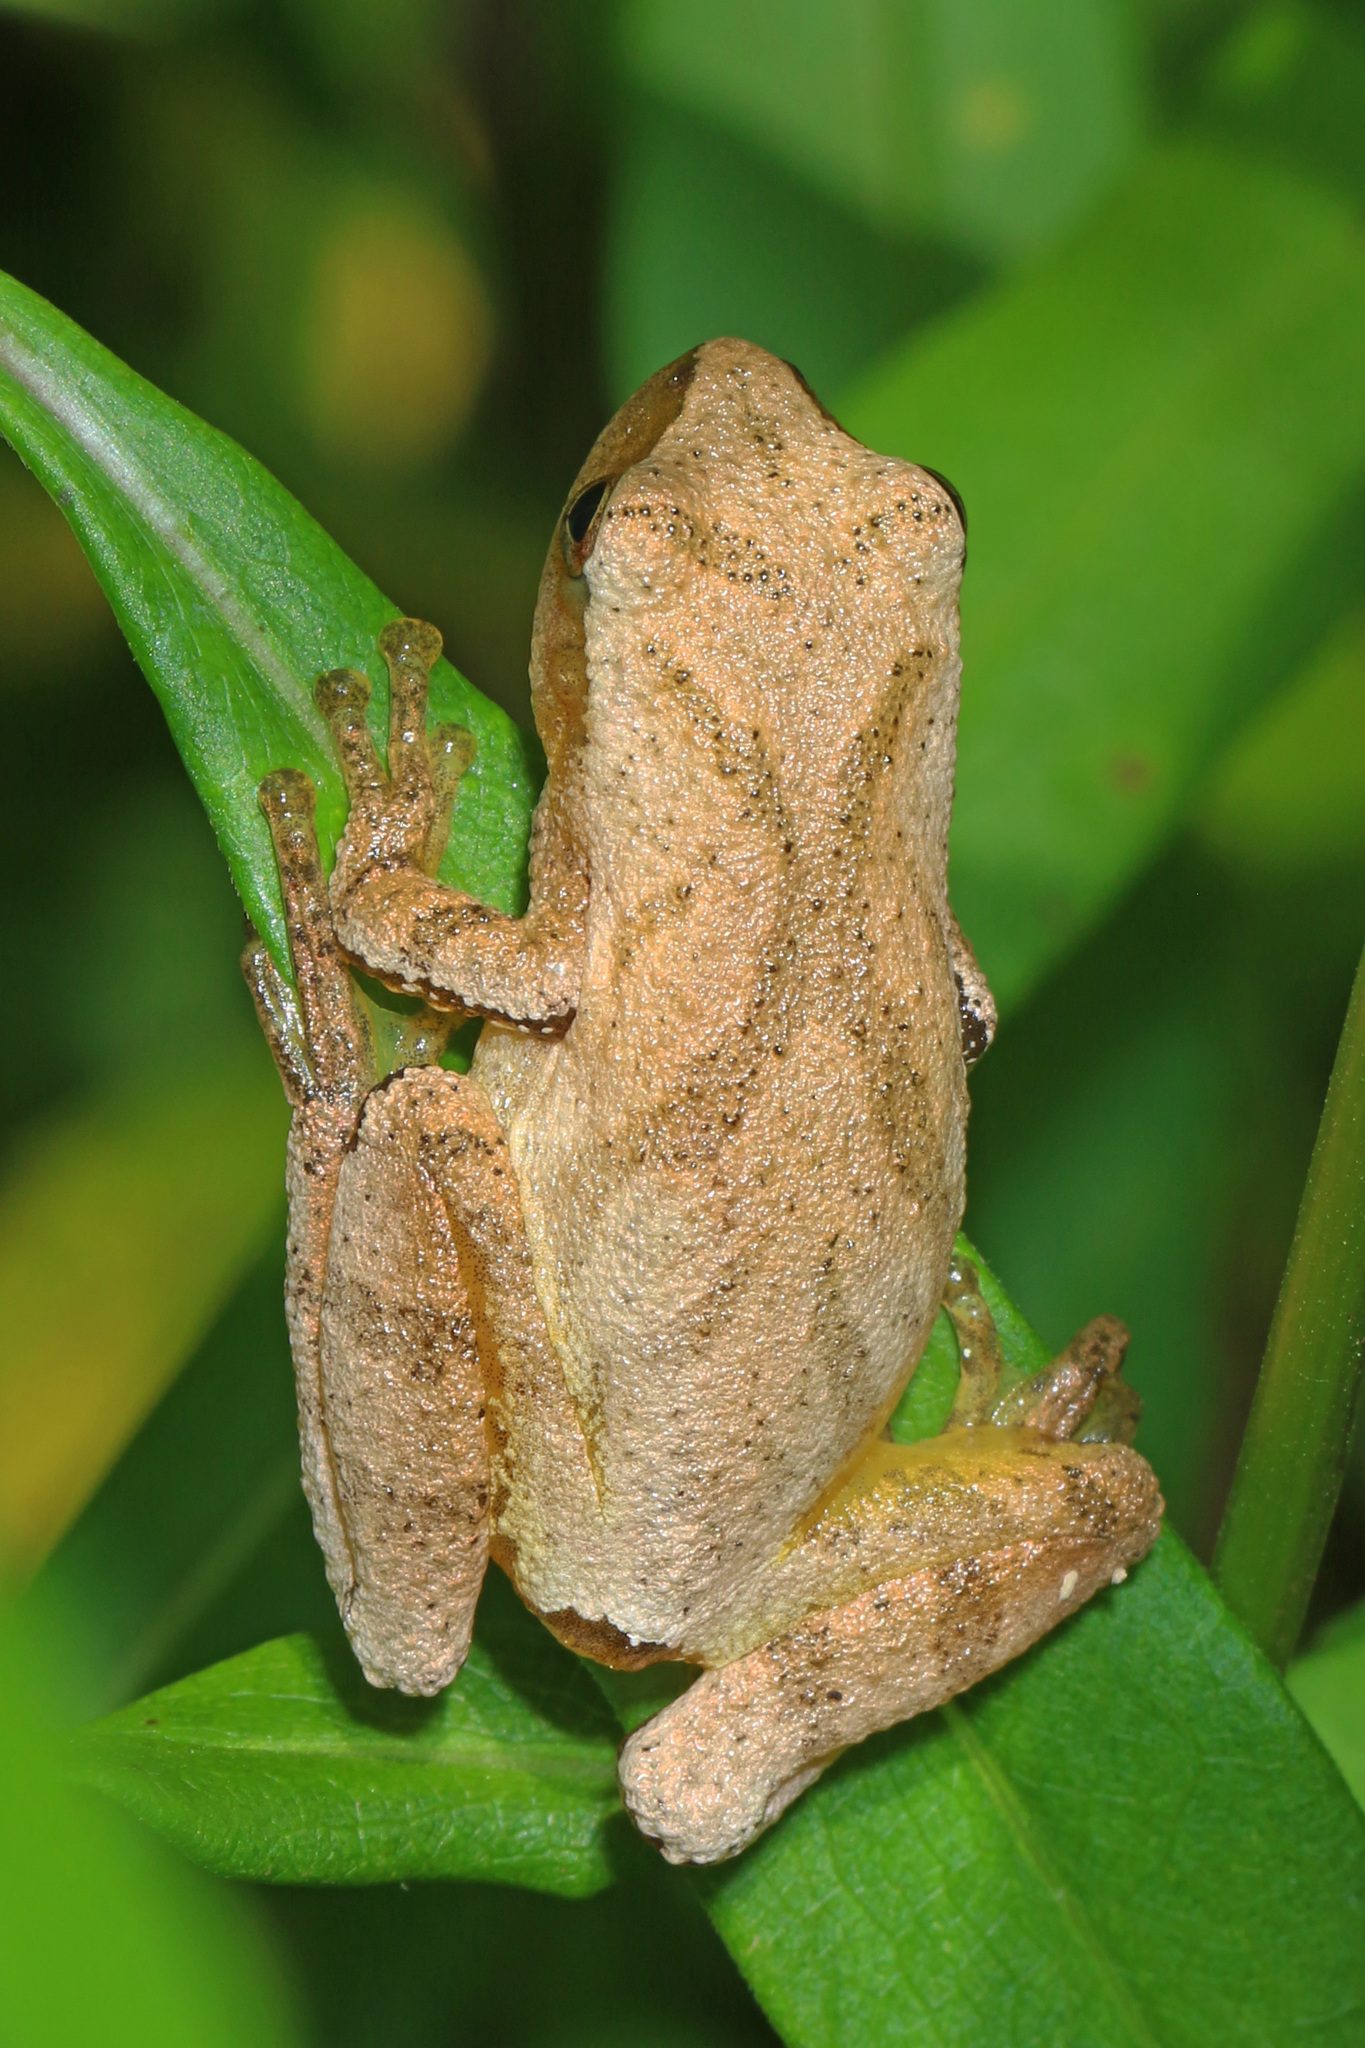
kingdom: Animalia
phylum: Chordata
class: Amphibia
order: Anura
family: Hylidae
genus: Pseudacris
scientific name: Pseudacris crucifer
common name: Spring peeper
